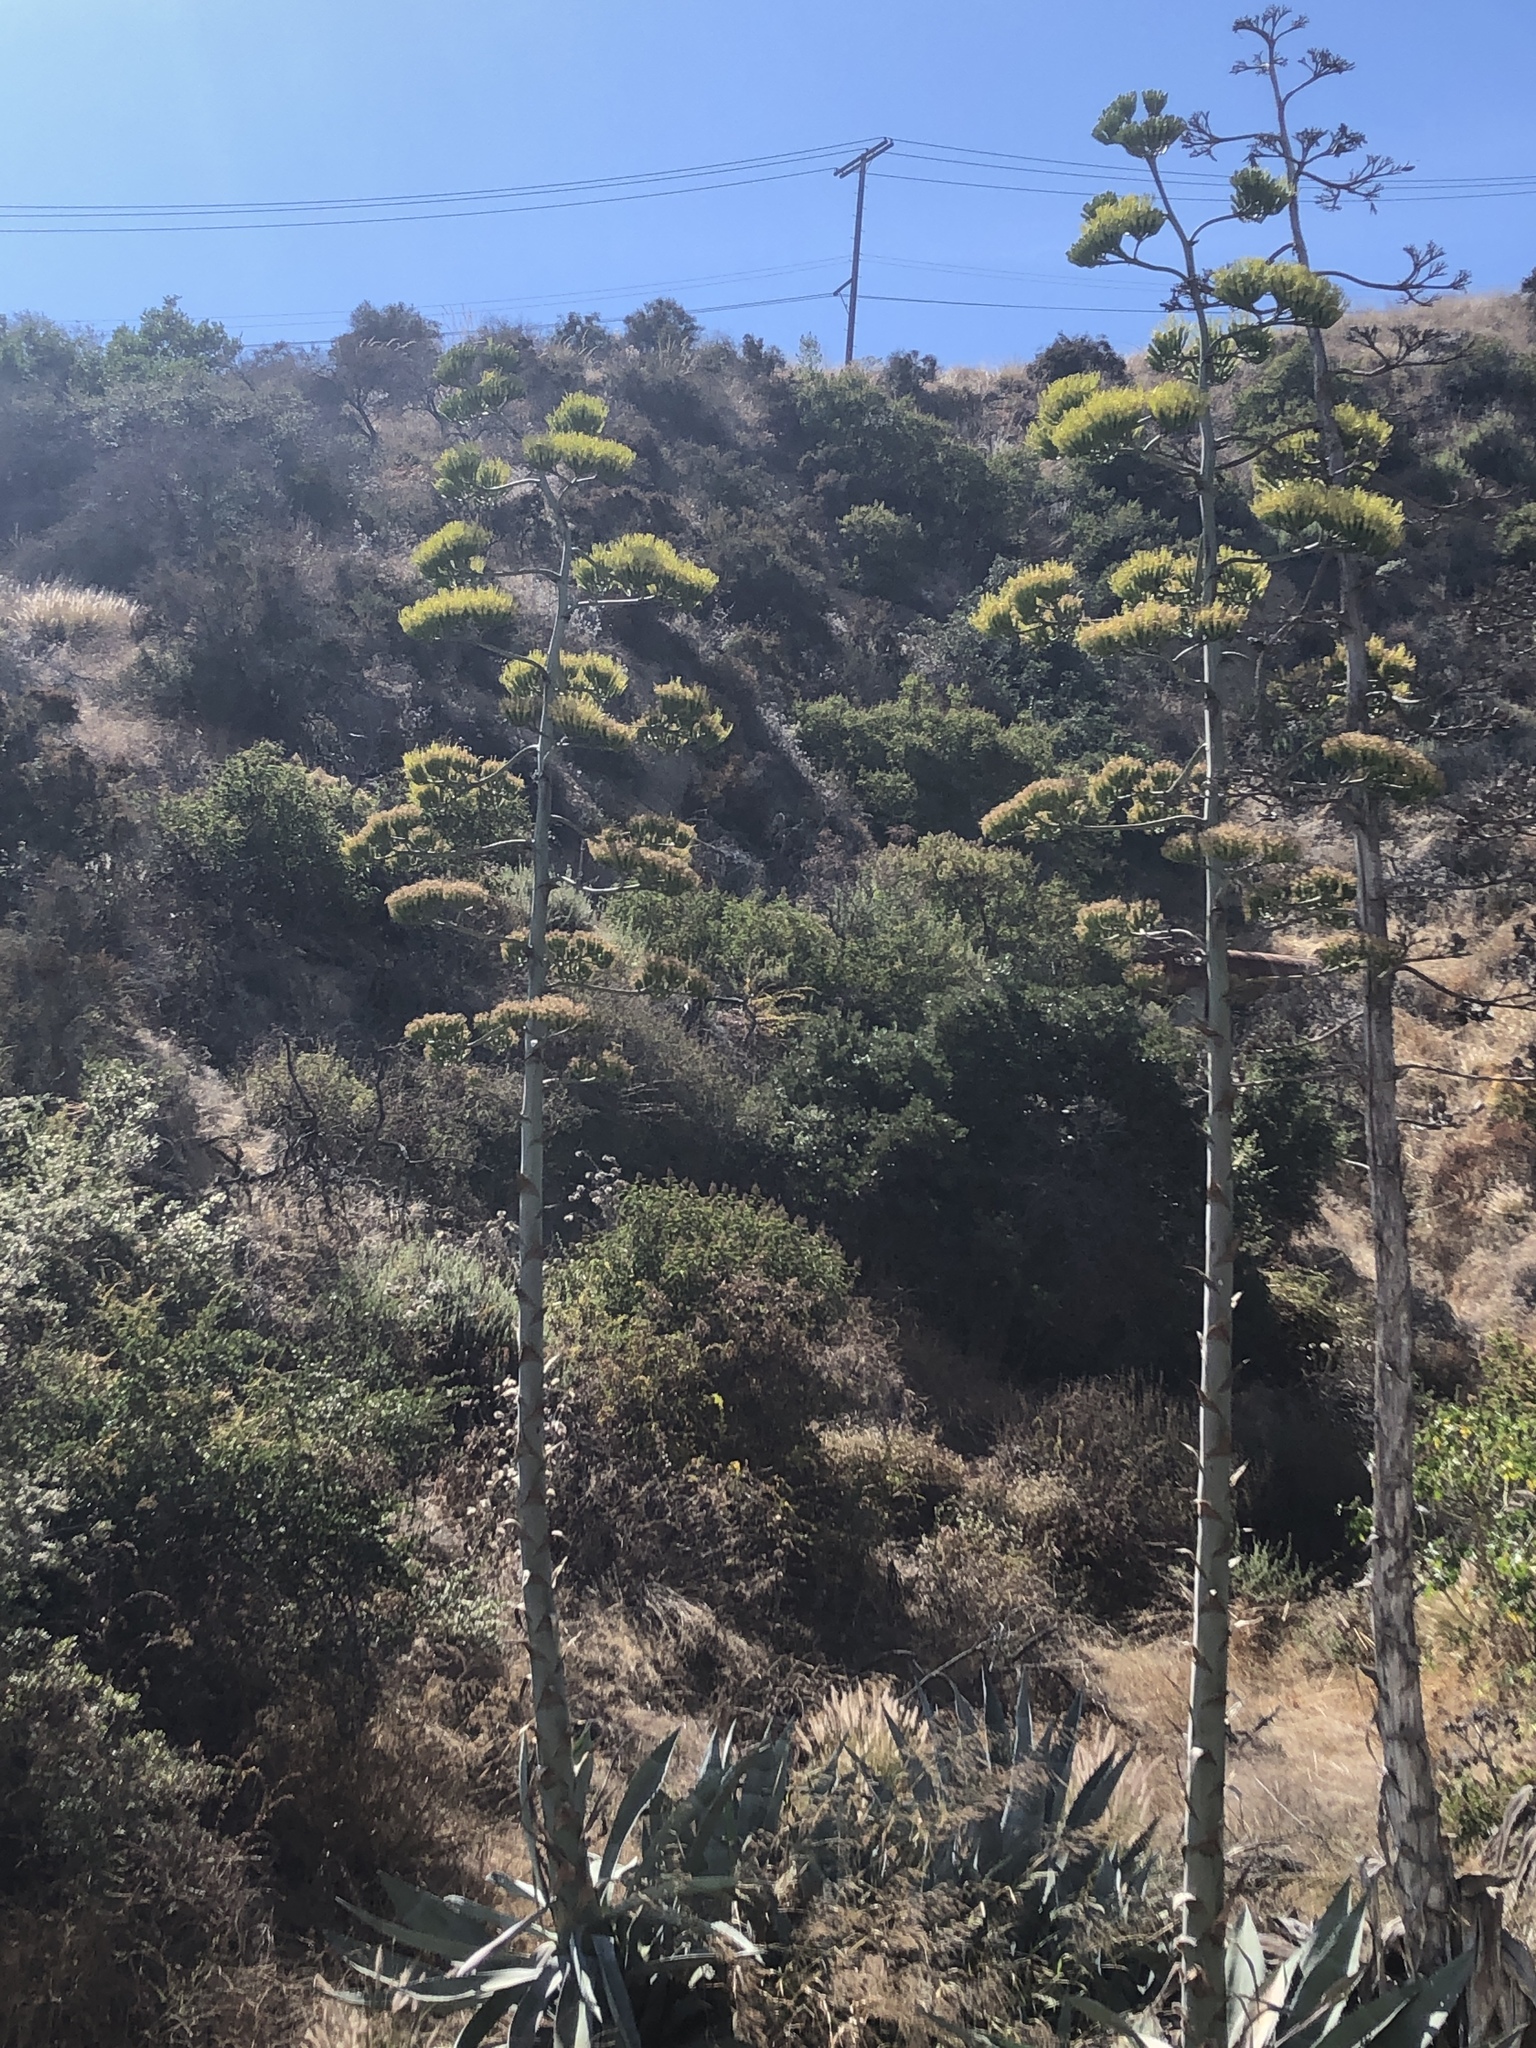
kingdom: Plantae
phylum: Tracheophyta
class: Liliopsida
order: Asparagales
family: Asparagaceae
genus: Agave
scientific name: Agave americana
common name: Centuryplant
